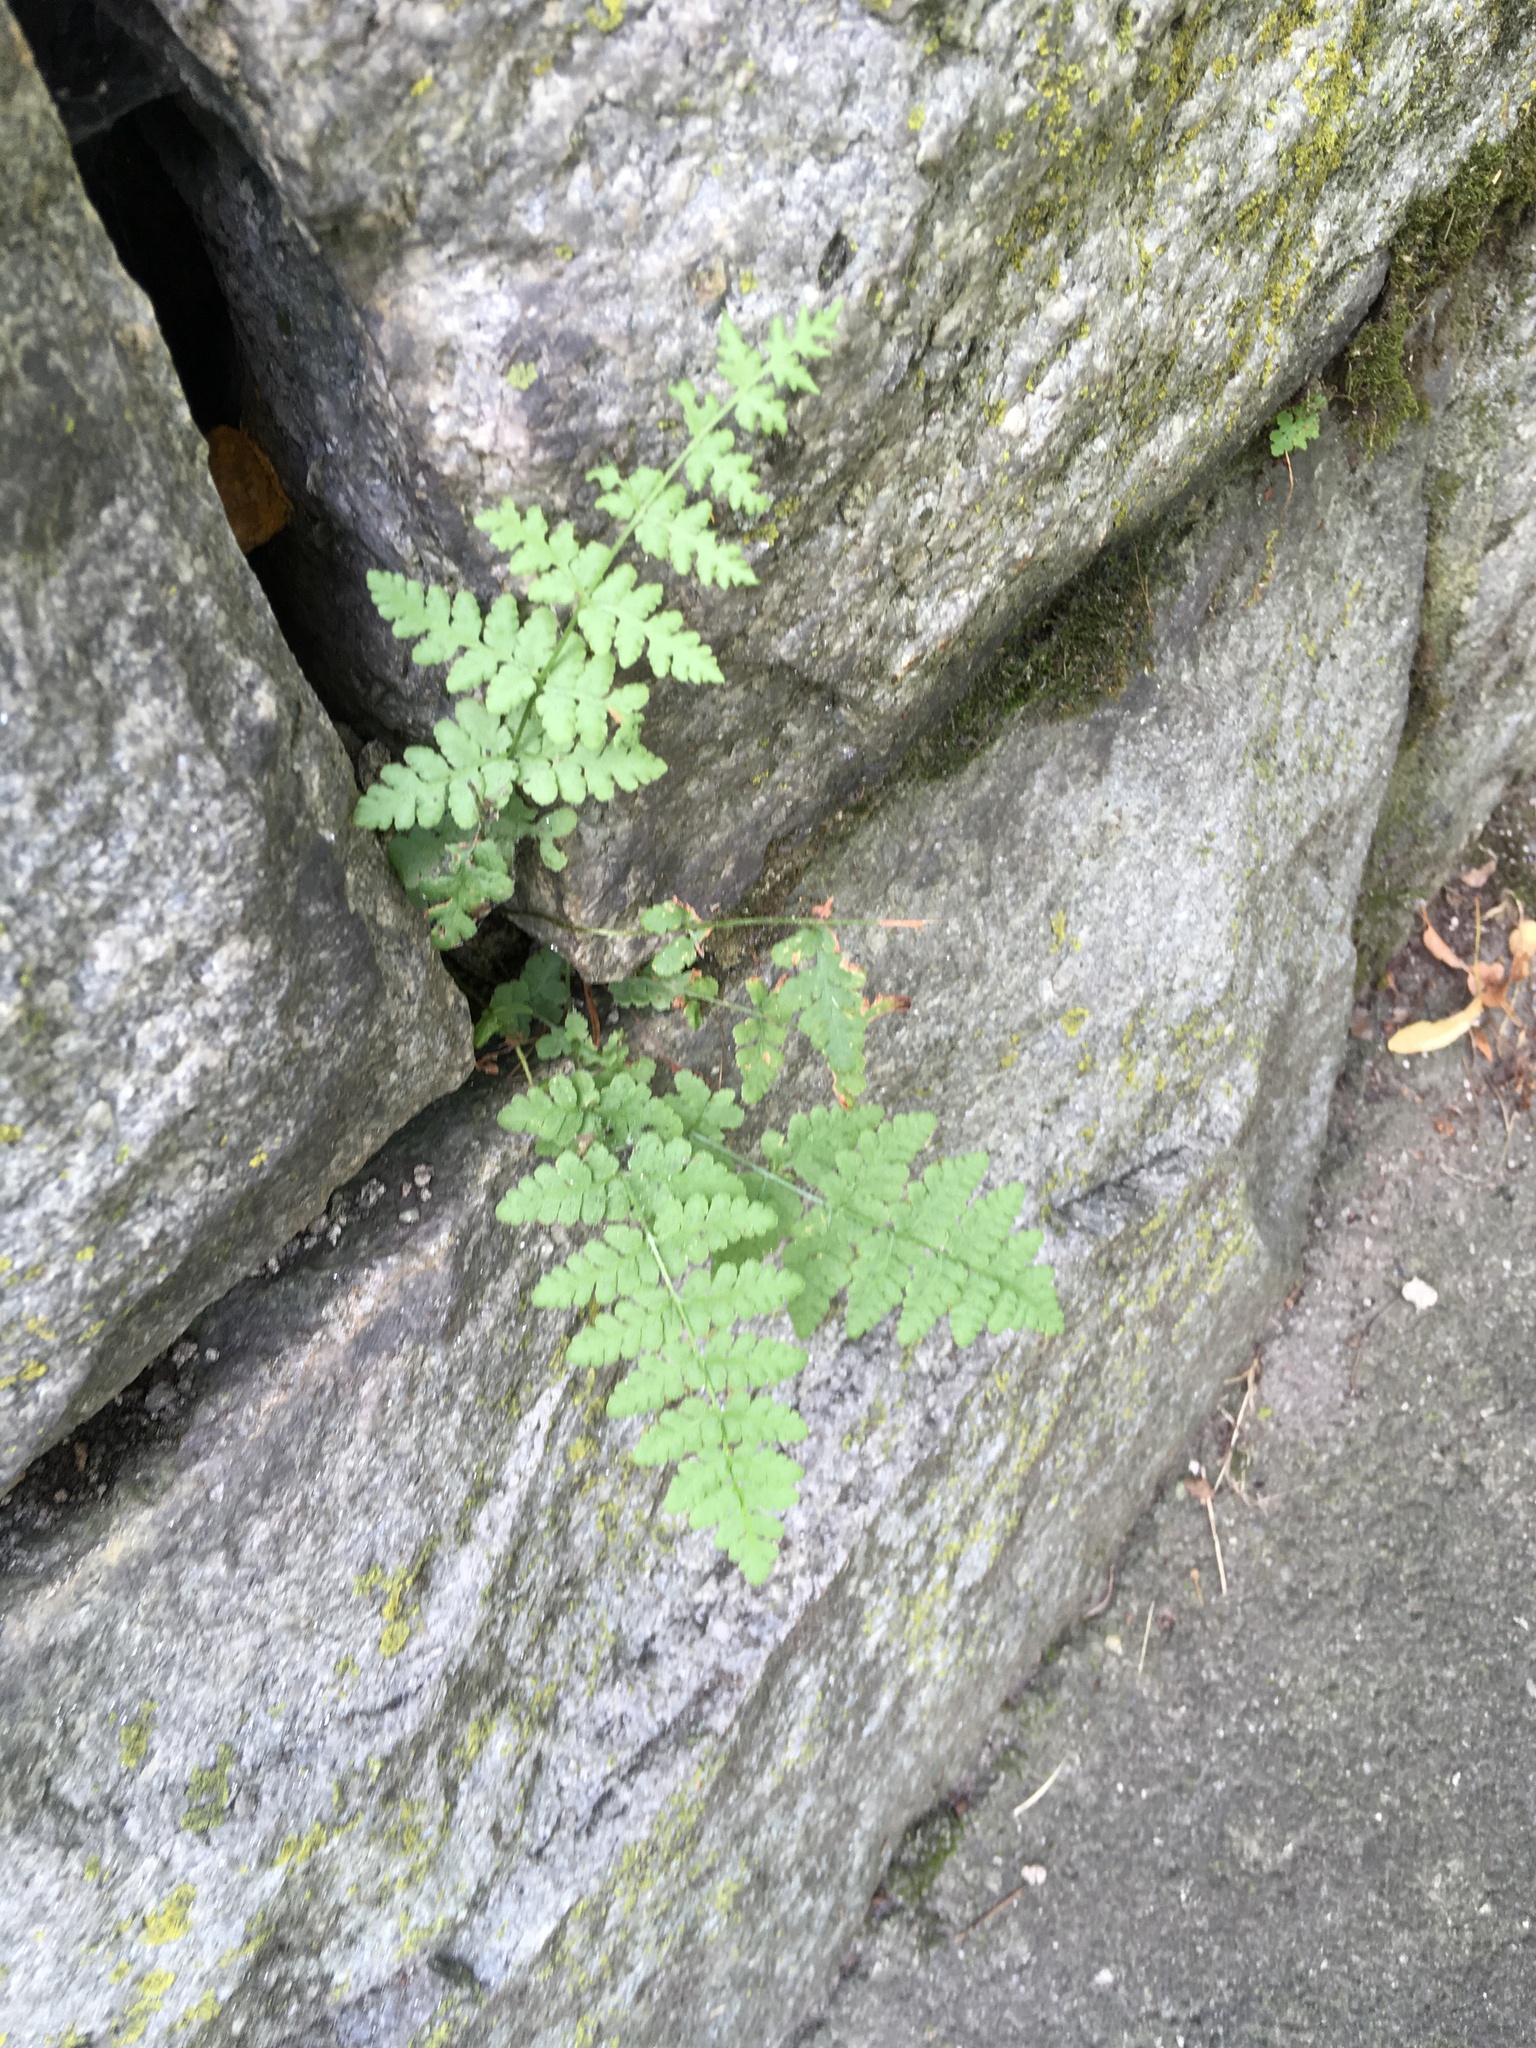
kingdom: Plantae
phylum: Tracheophyta
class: Polypodiopsida
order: Polypodiales
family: Woodsiaceae
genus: Physematium
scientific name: Physematium obtusum
